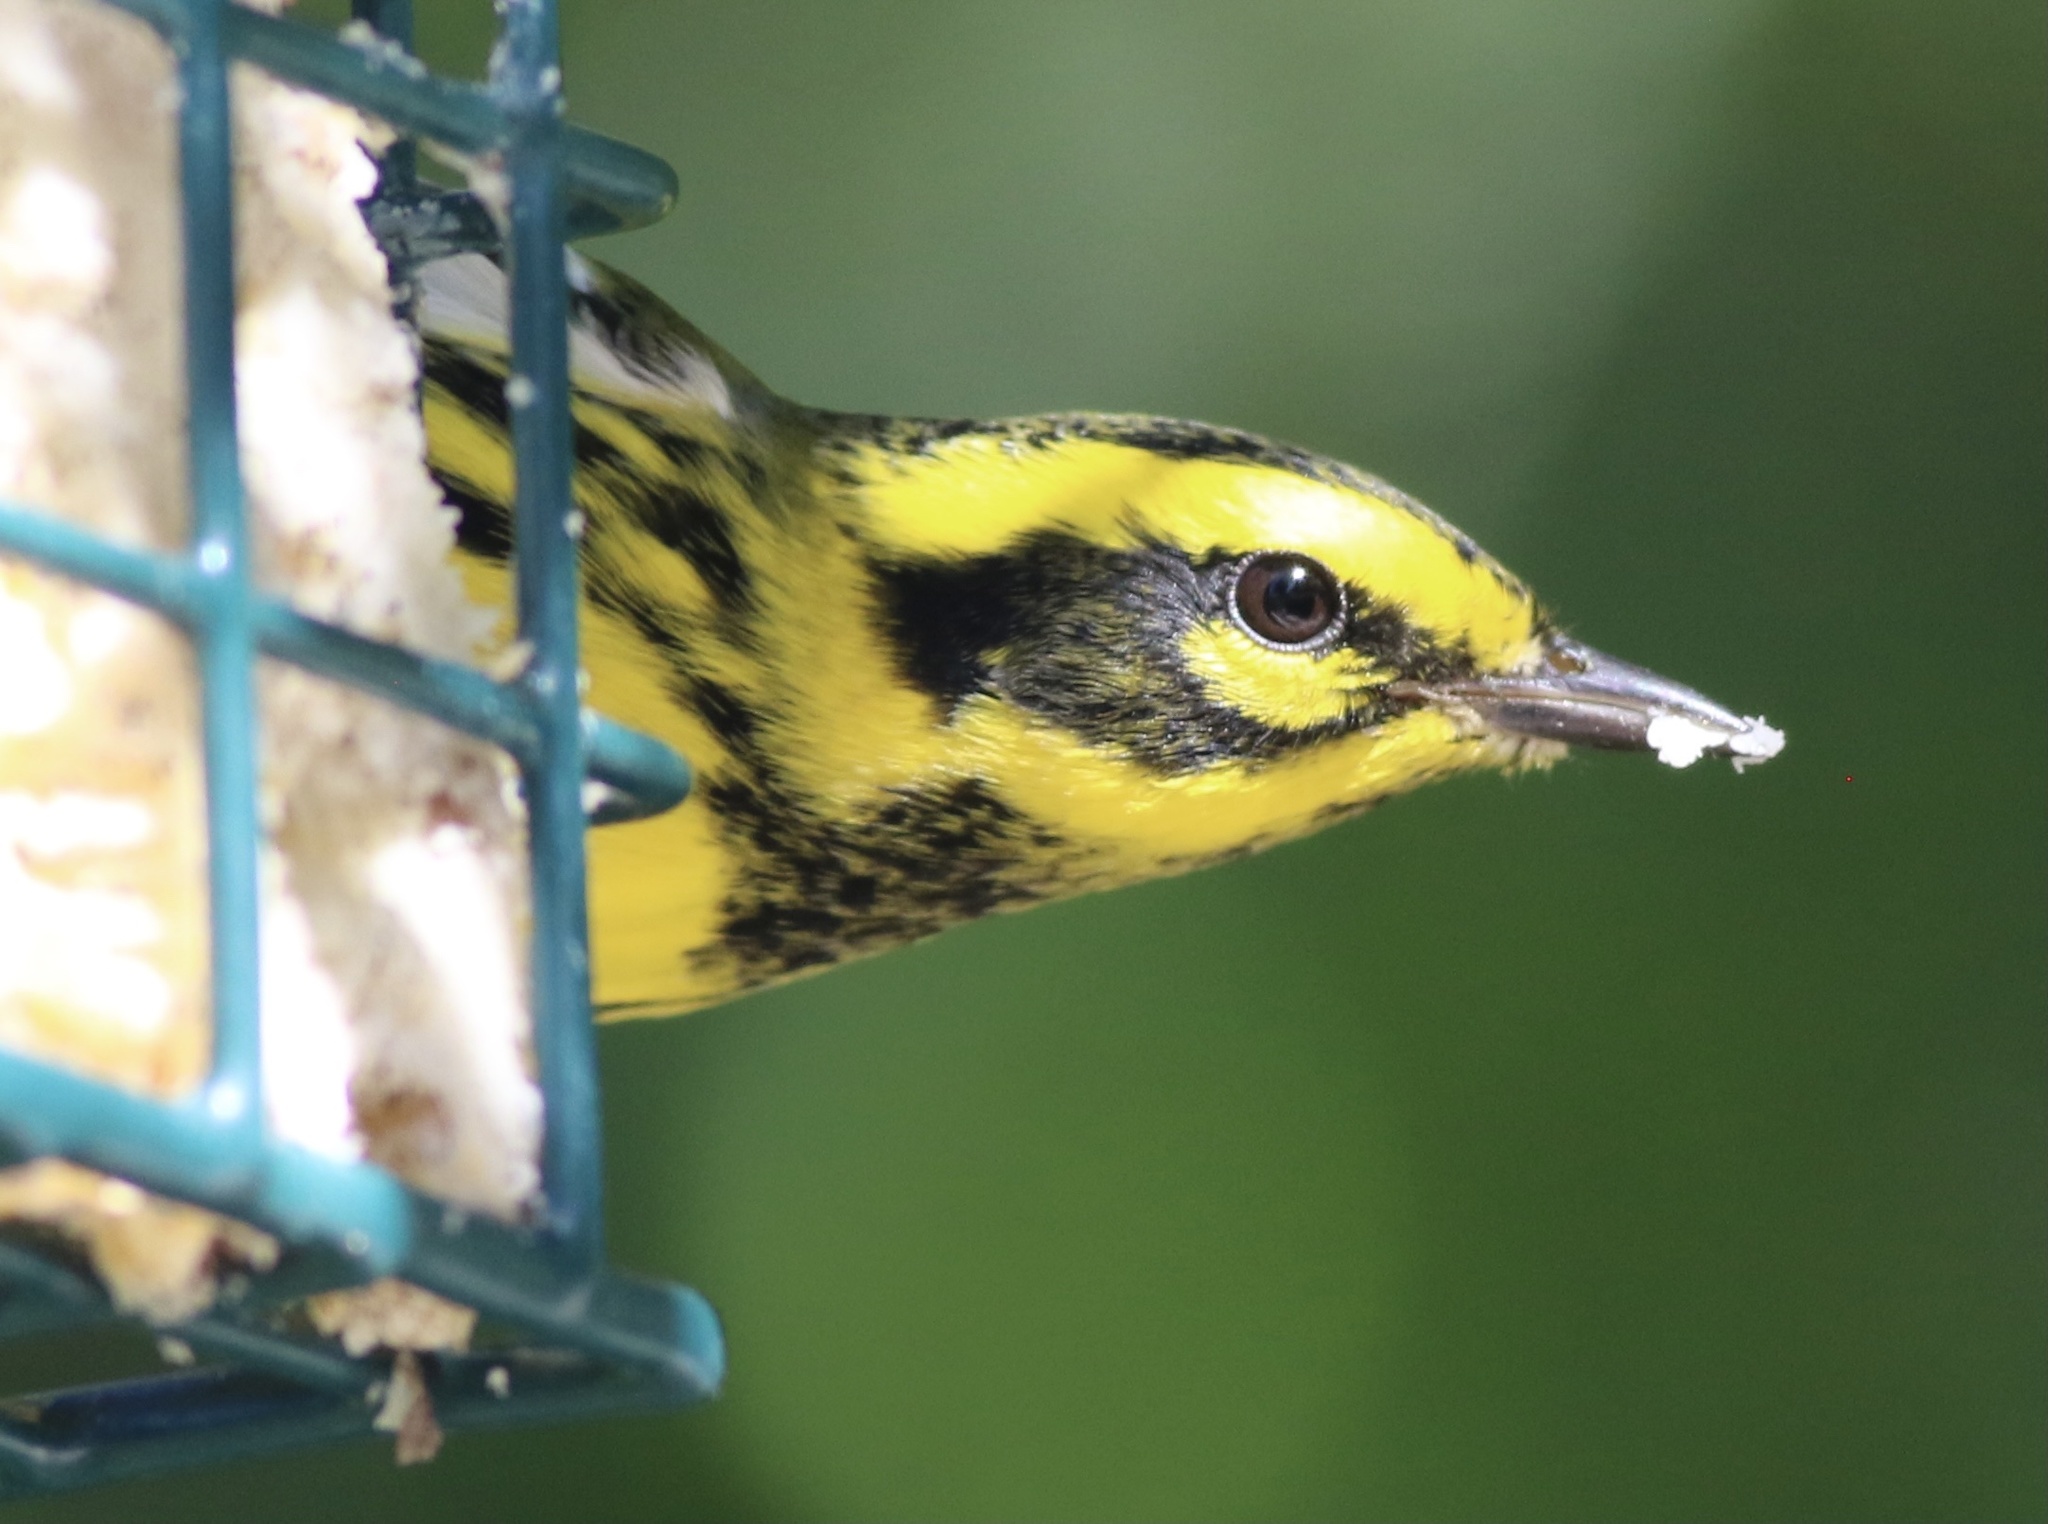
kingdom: Animalia
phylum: Chordata
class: Aves
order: Passeriformes
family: Parulidae
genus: Setophaga
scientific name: Setophaga townsendi
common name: Townsend's warbler
